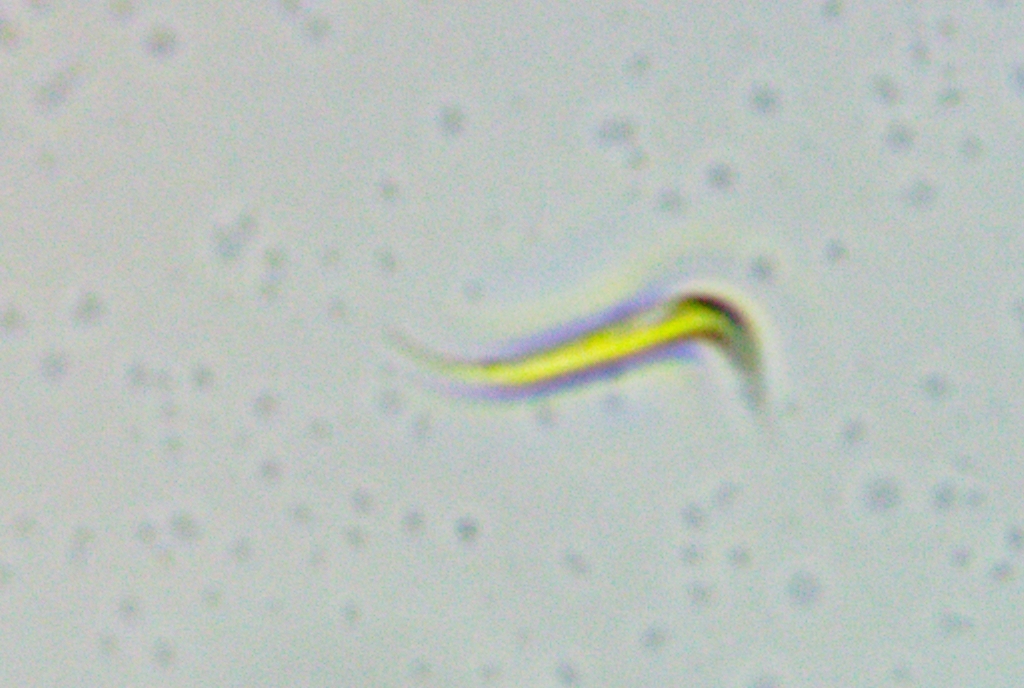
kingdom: Plantae
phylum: Chlorophyta
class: Chlorophyceae
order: Sphaeropleales
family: Selenastraceae
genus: Monoraphidium
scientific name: Monoraphidium contortum
